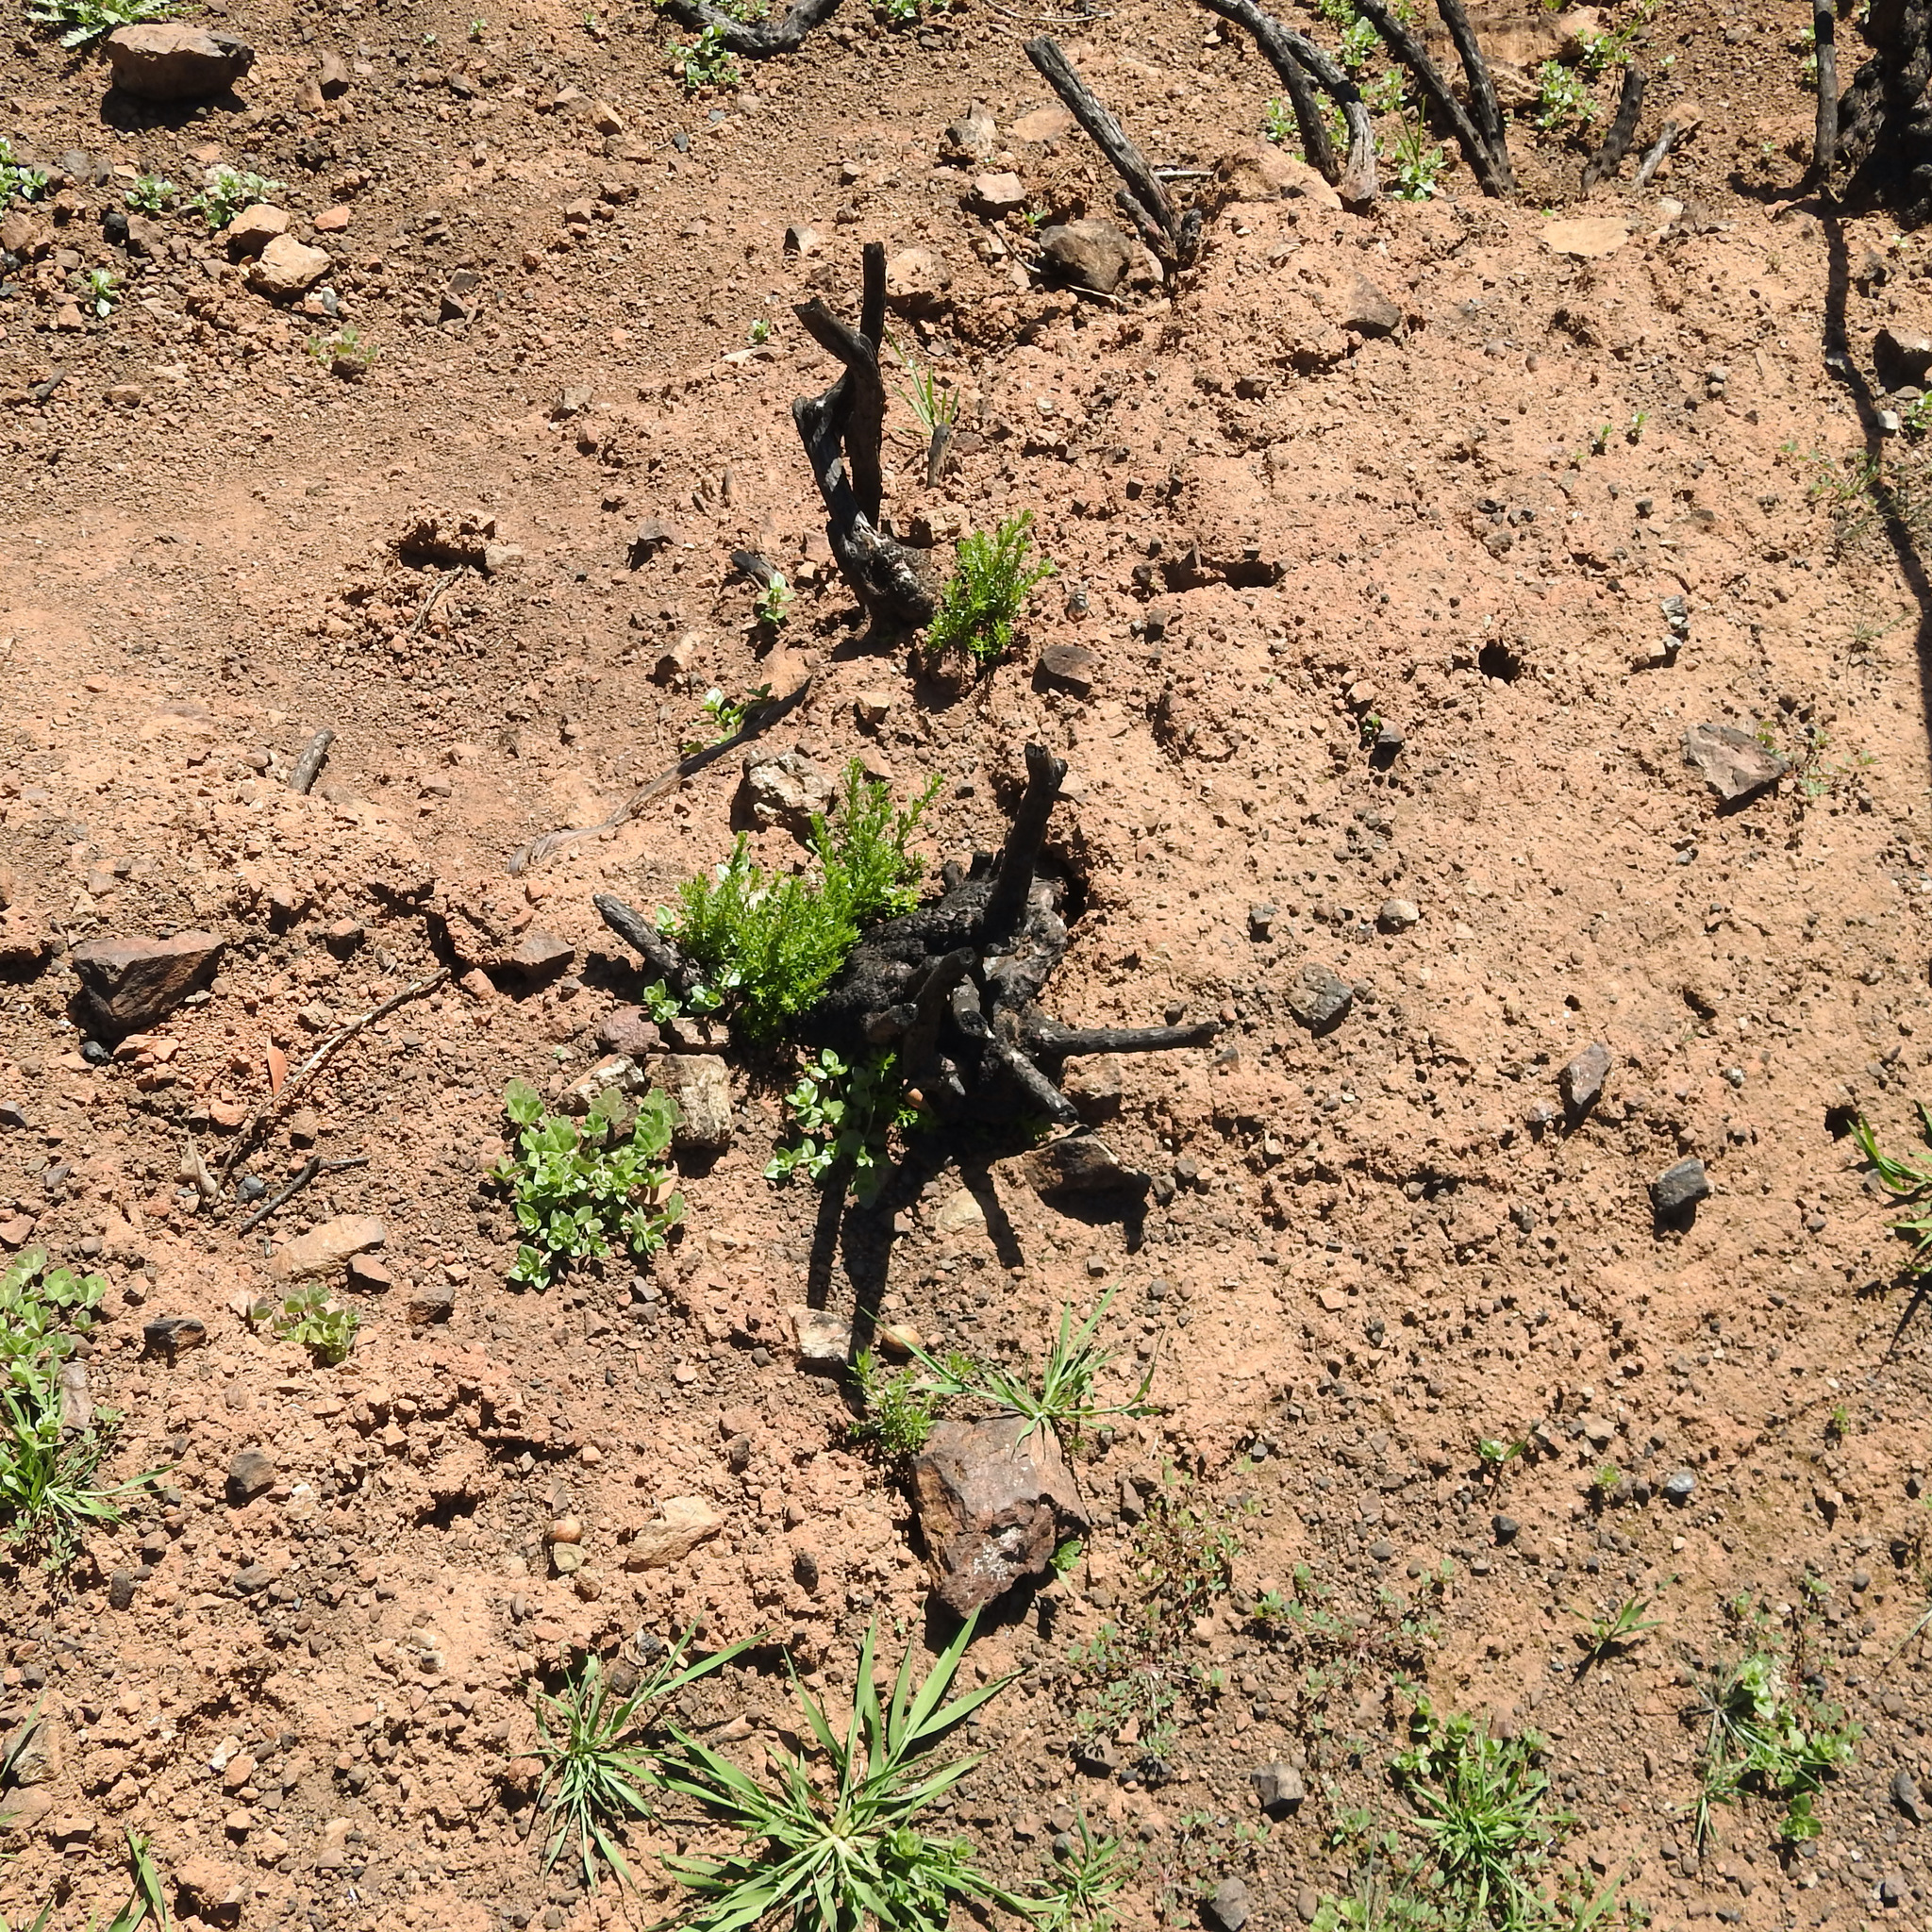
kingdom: Plantae
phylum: Tracheophyta
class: Magnoliopsida
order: Rosales
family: Rosaceae
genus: Adenostoma
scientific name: Adenostoma fasciculatum
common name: Chamise
